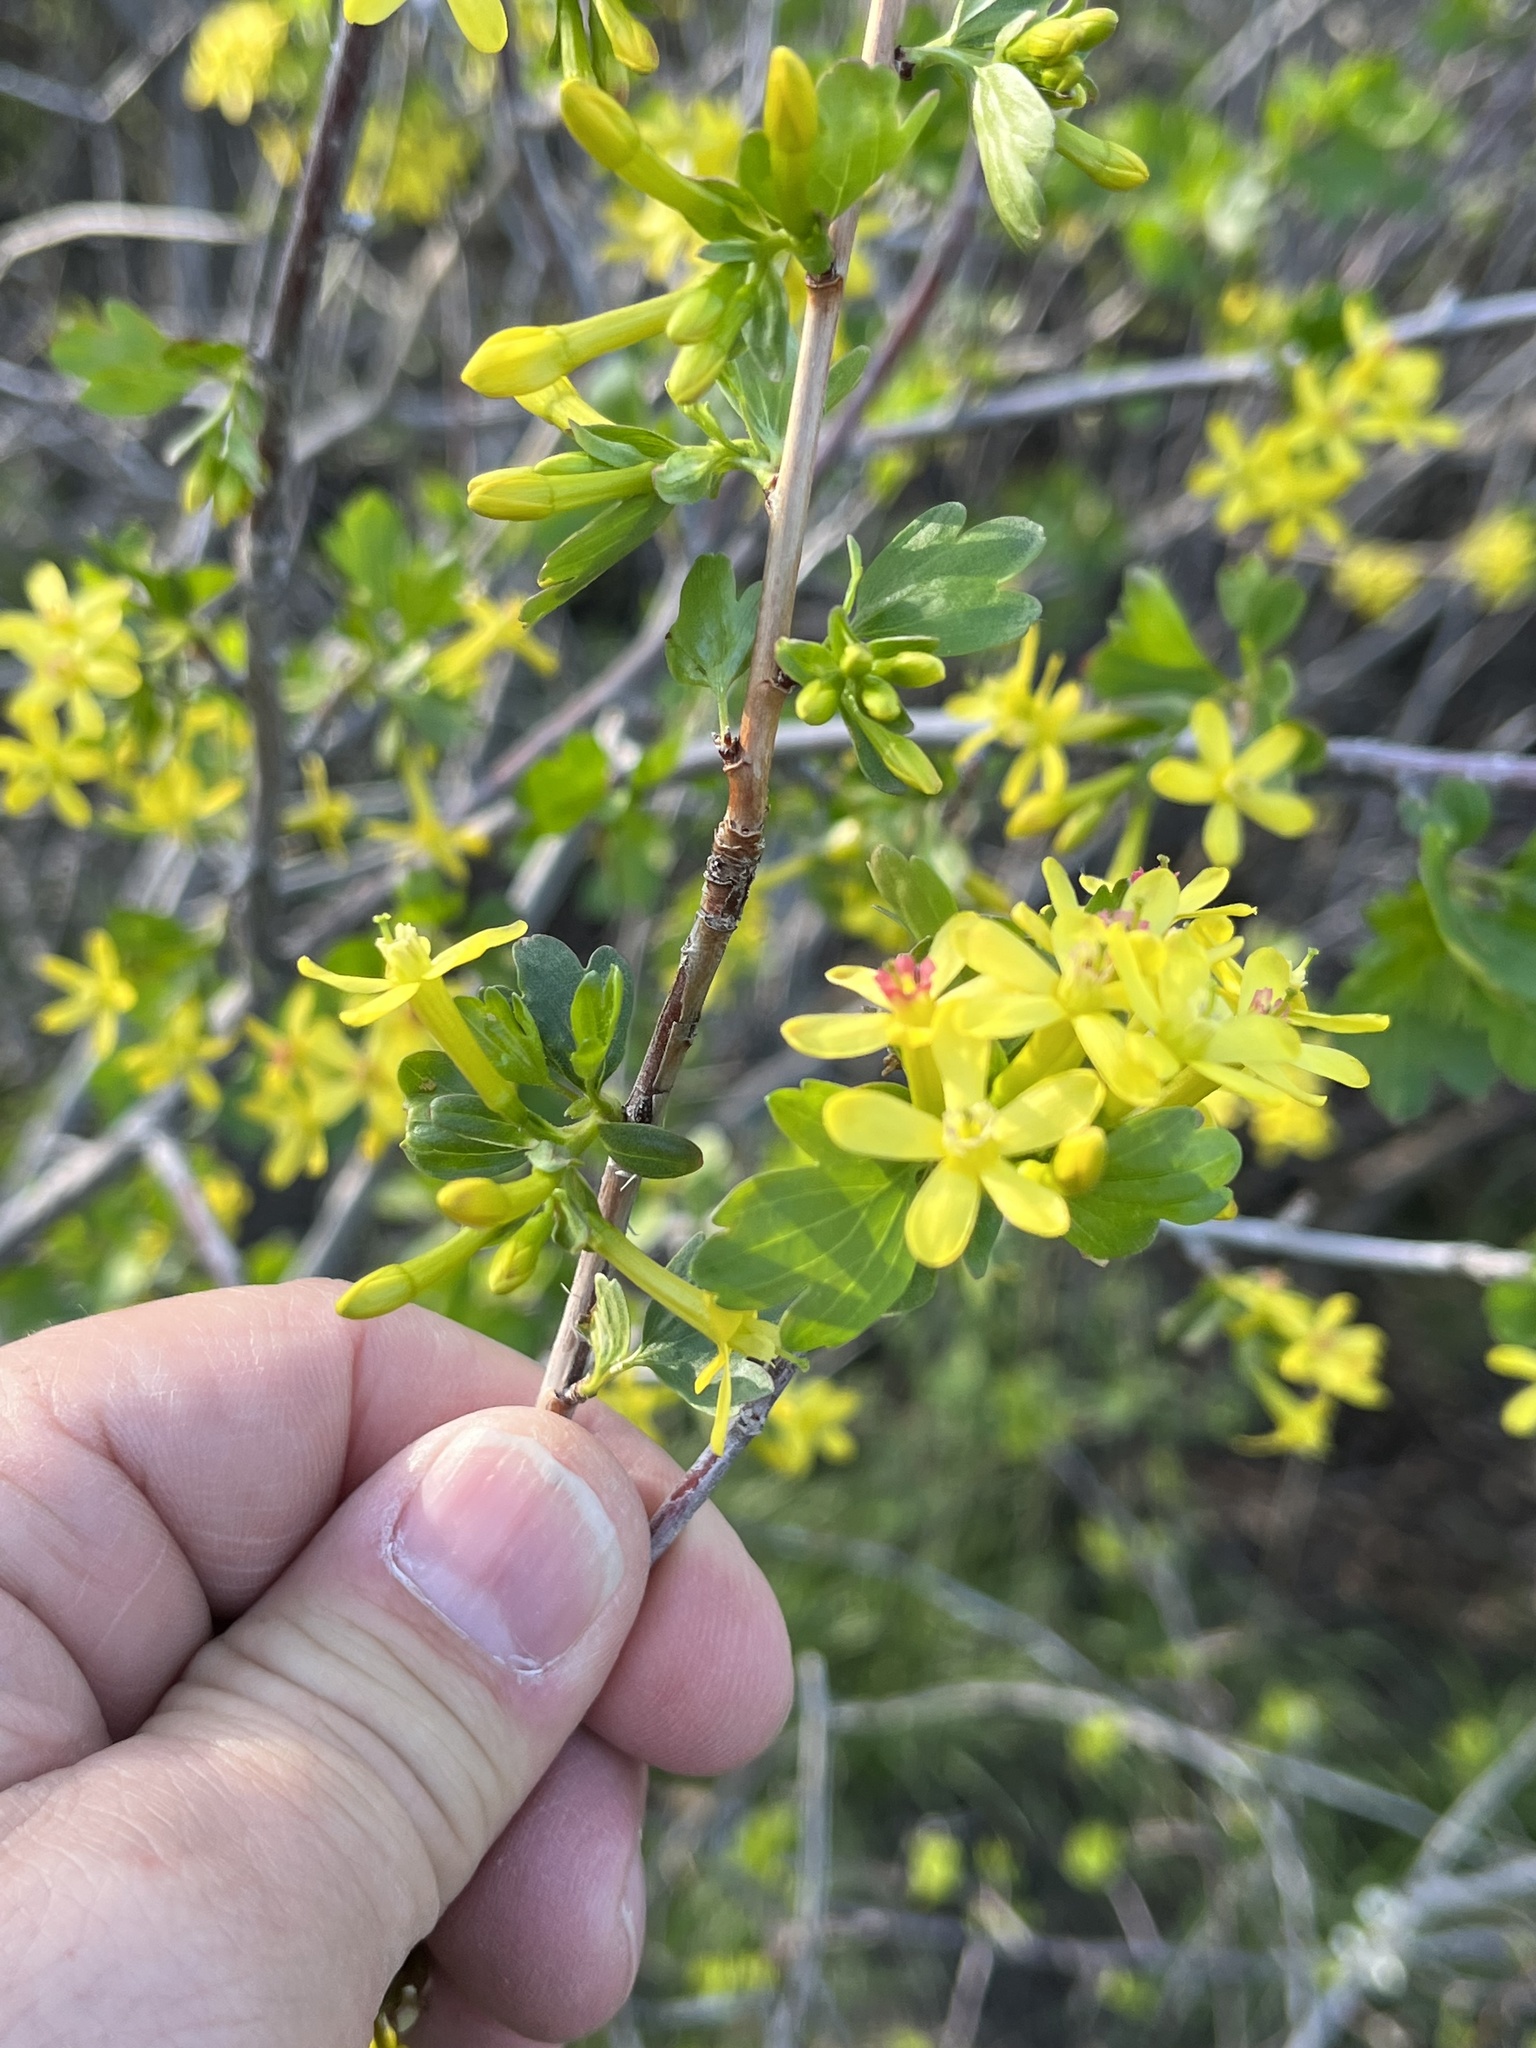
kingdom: Plantae
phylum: Tracheophyta
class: Magnoliopsida
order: Saxifragales
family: Grossulariaceae
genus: Ribes
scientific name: Ribes aureum
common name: Golden currant
